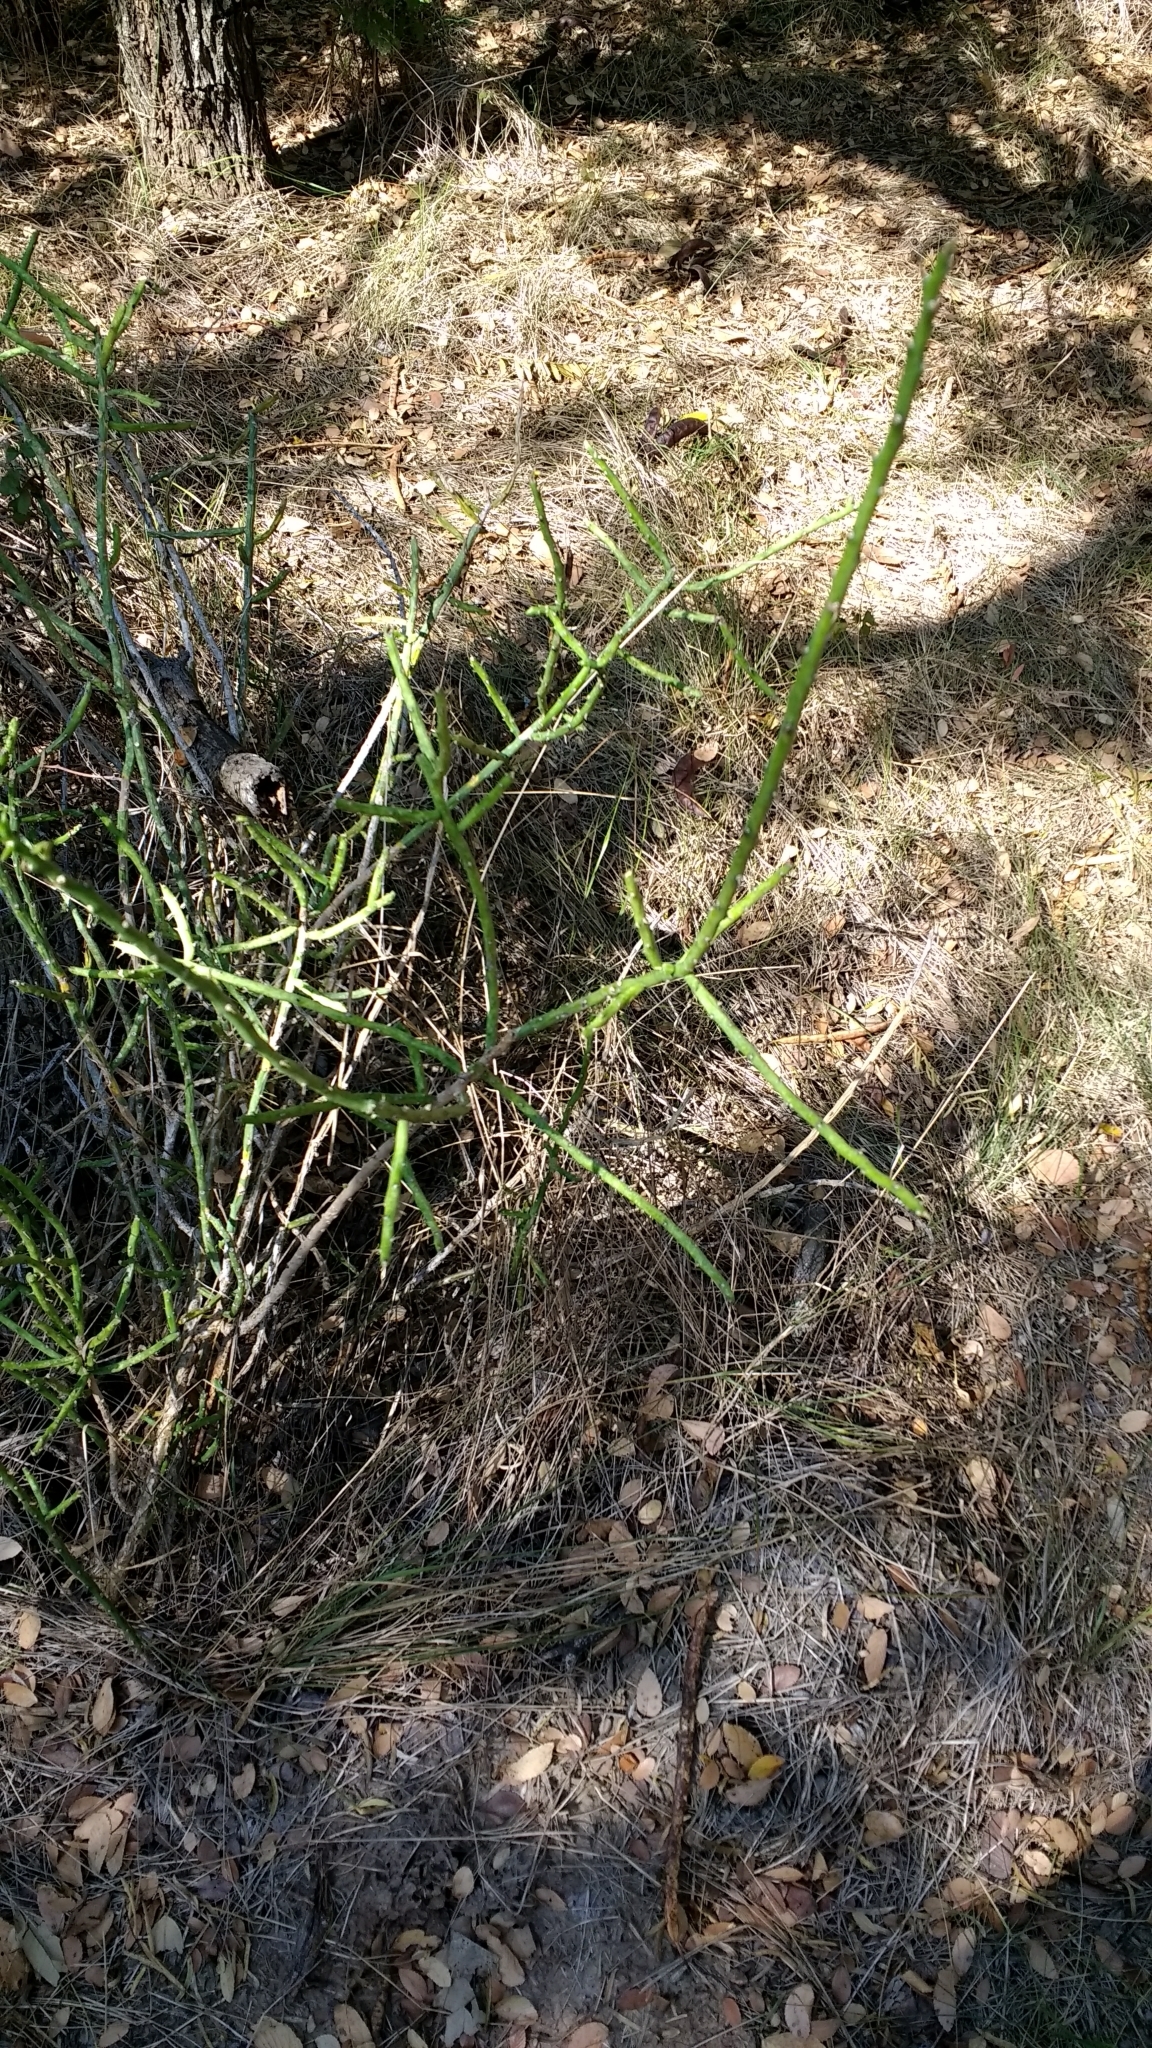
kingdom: Plantae
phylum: Tracheophyta
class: Magnoliopsida
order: Caryophyllales
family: Cactaceae
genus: Cylindropuntia
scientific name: Cylindropuntia leptocaulis
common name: Christmas cactus
